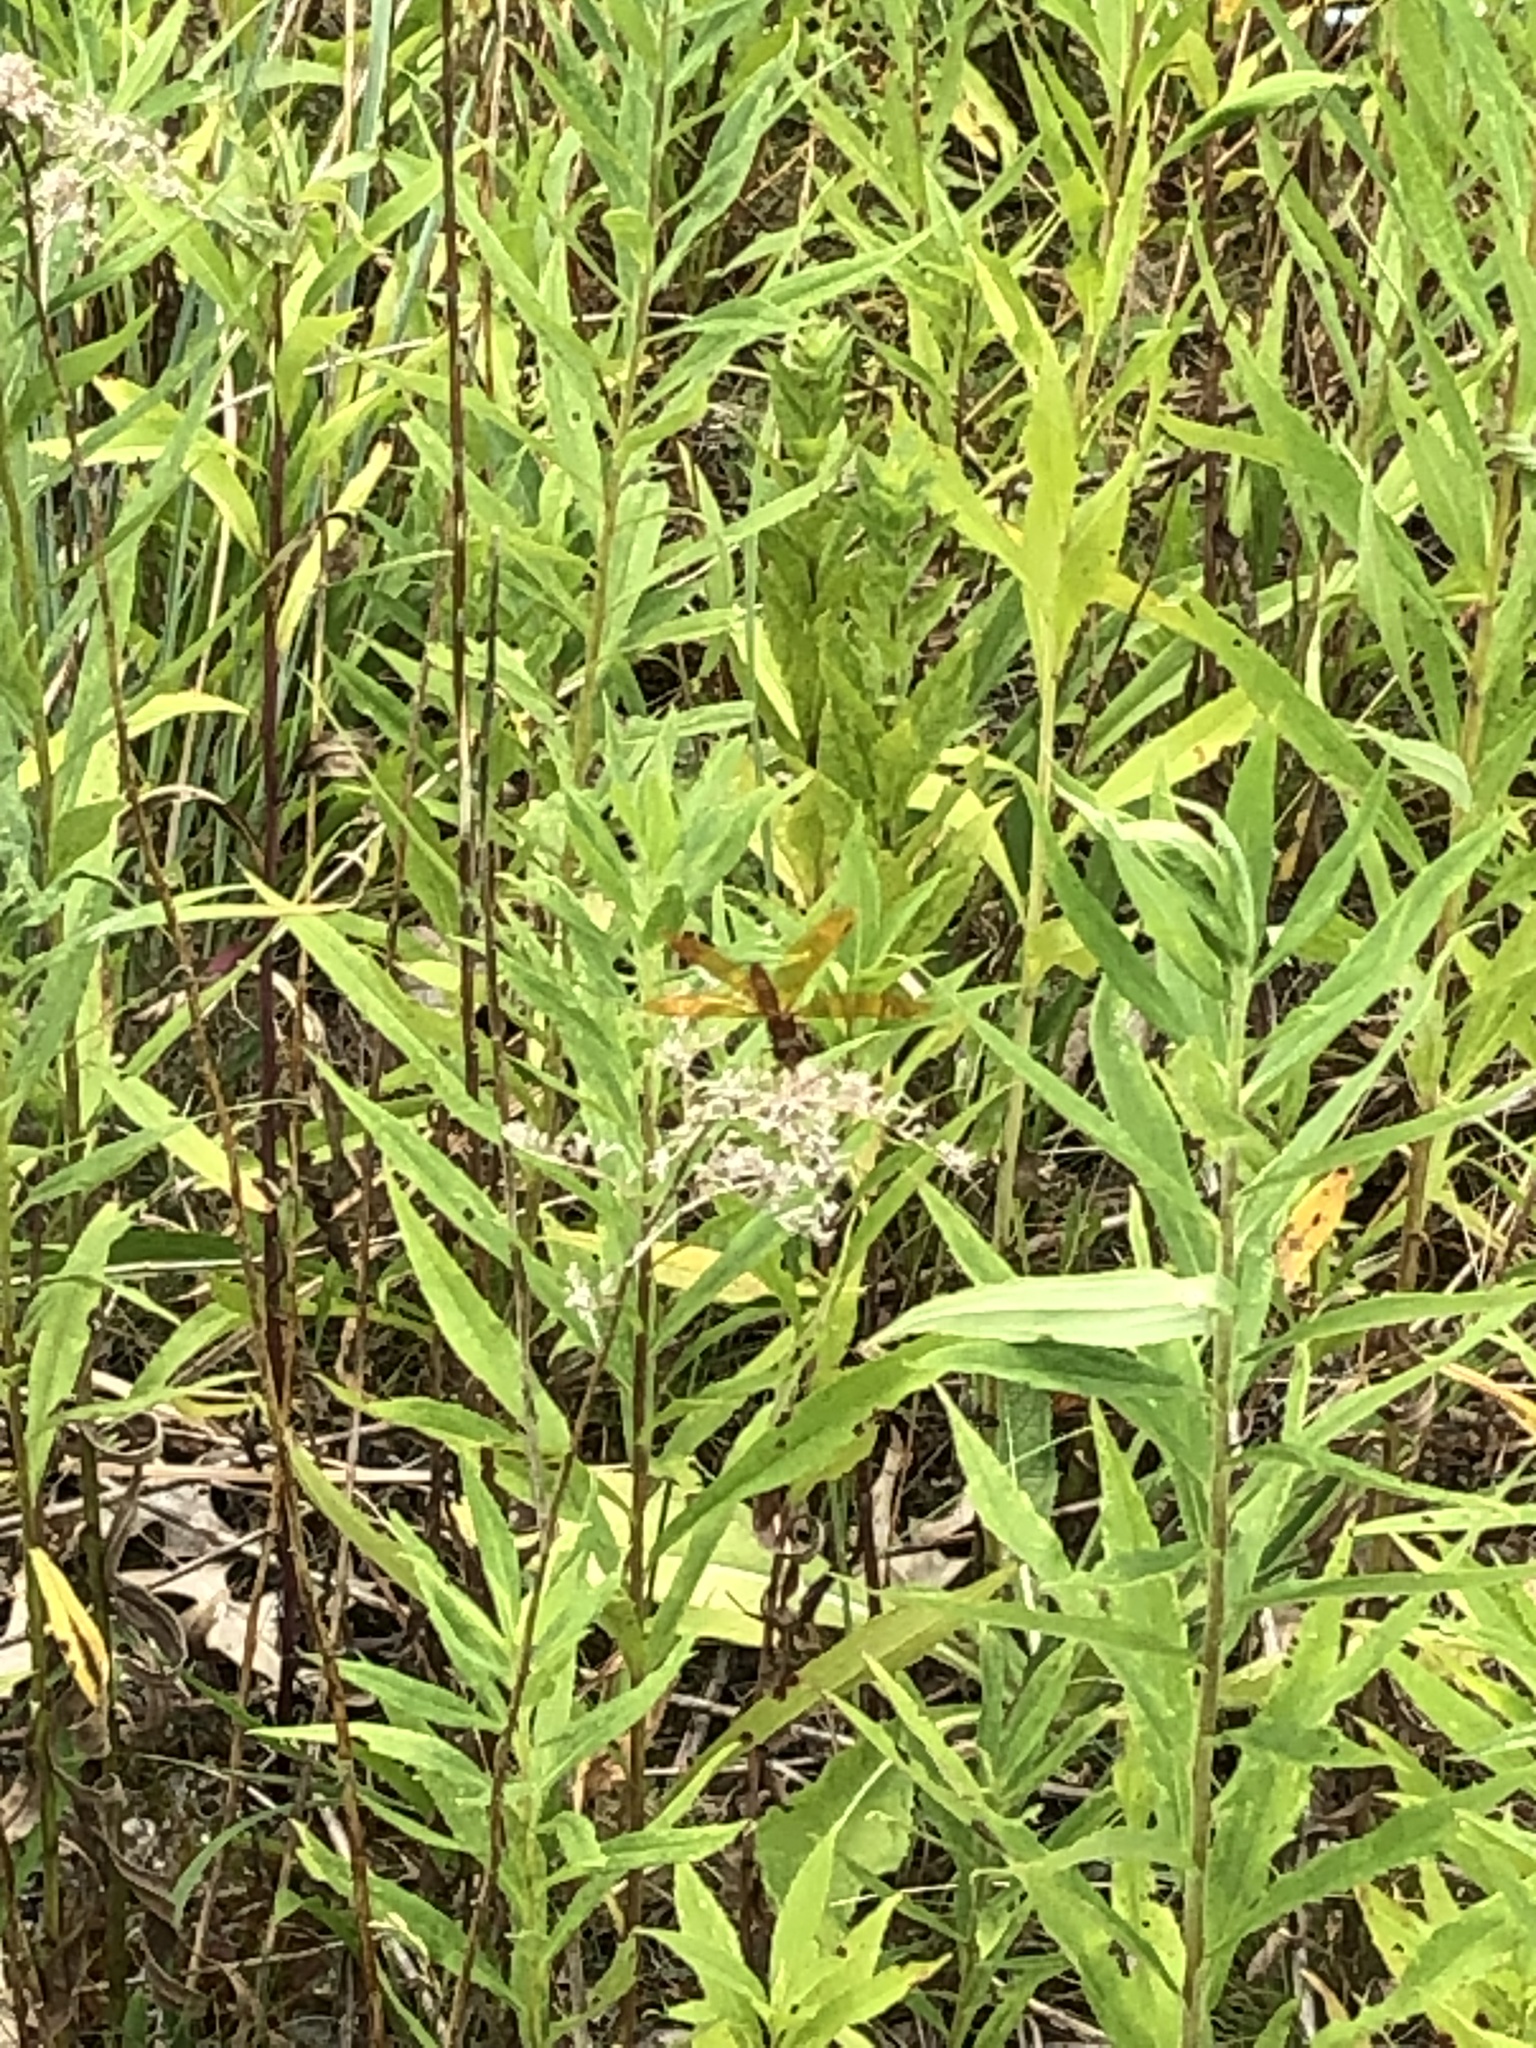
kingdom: Animalia
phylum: Arthropoda
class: Insecta
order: Odonata
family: Libellulidae
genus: Perithemis
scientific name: Perithemis tenera
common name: Eastern amberwing
